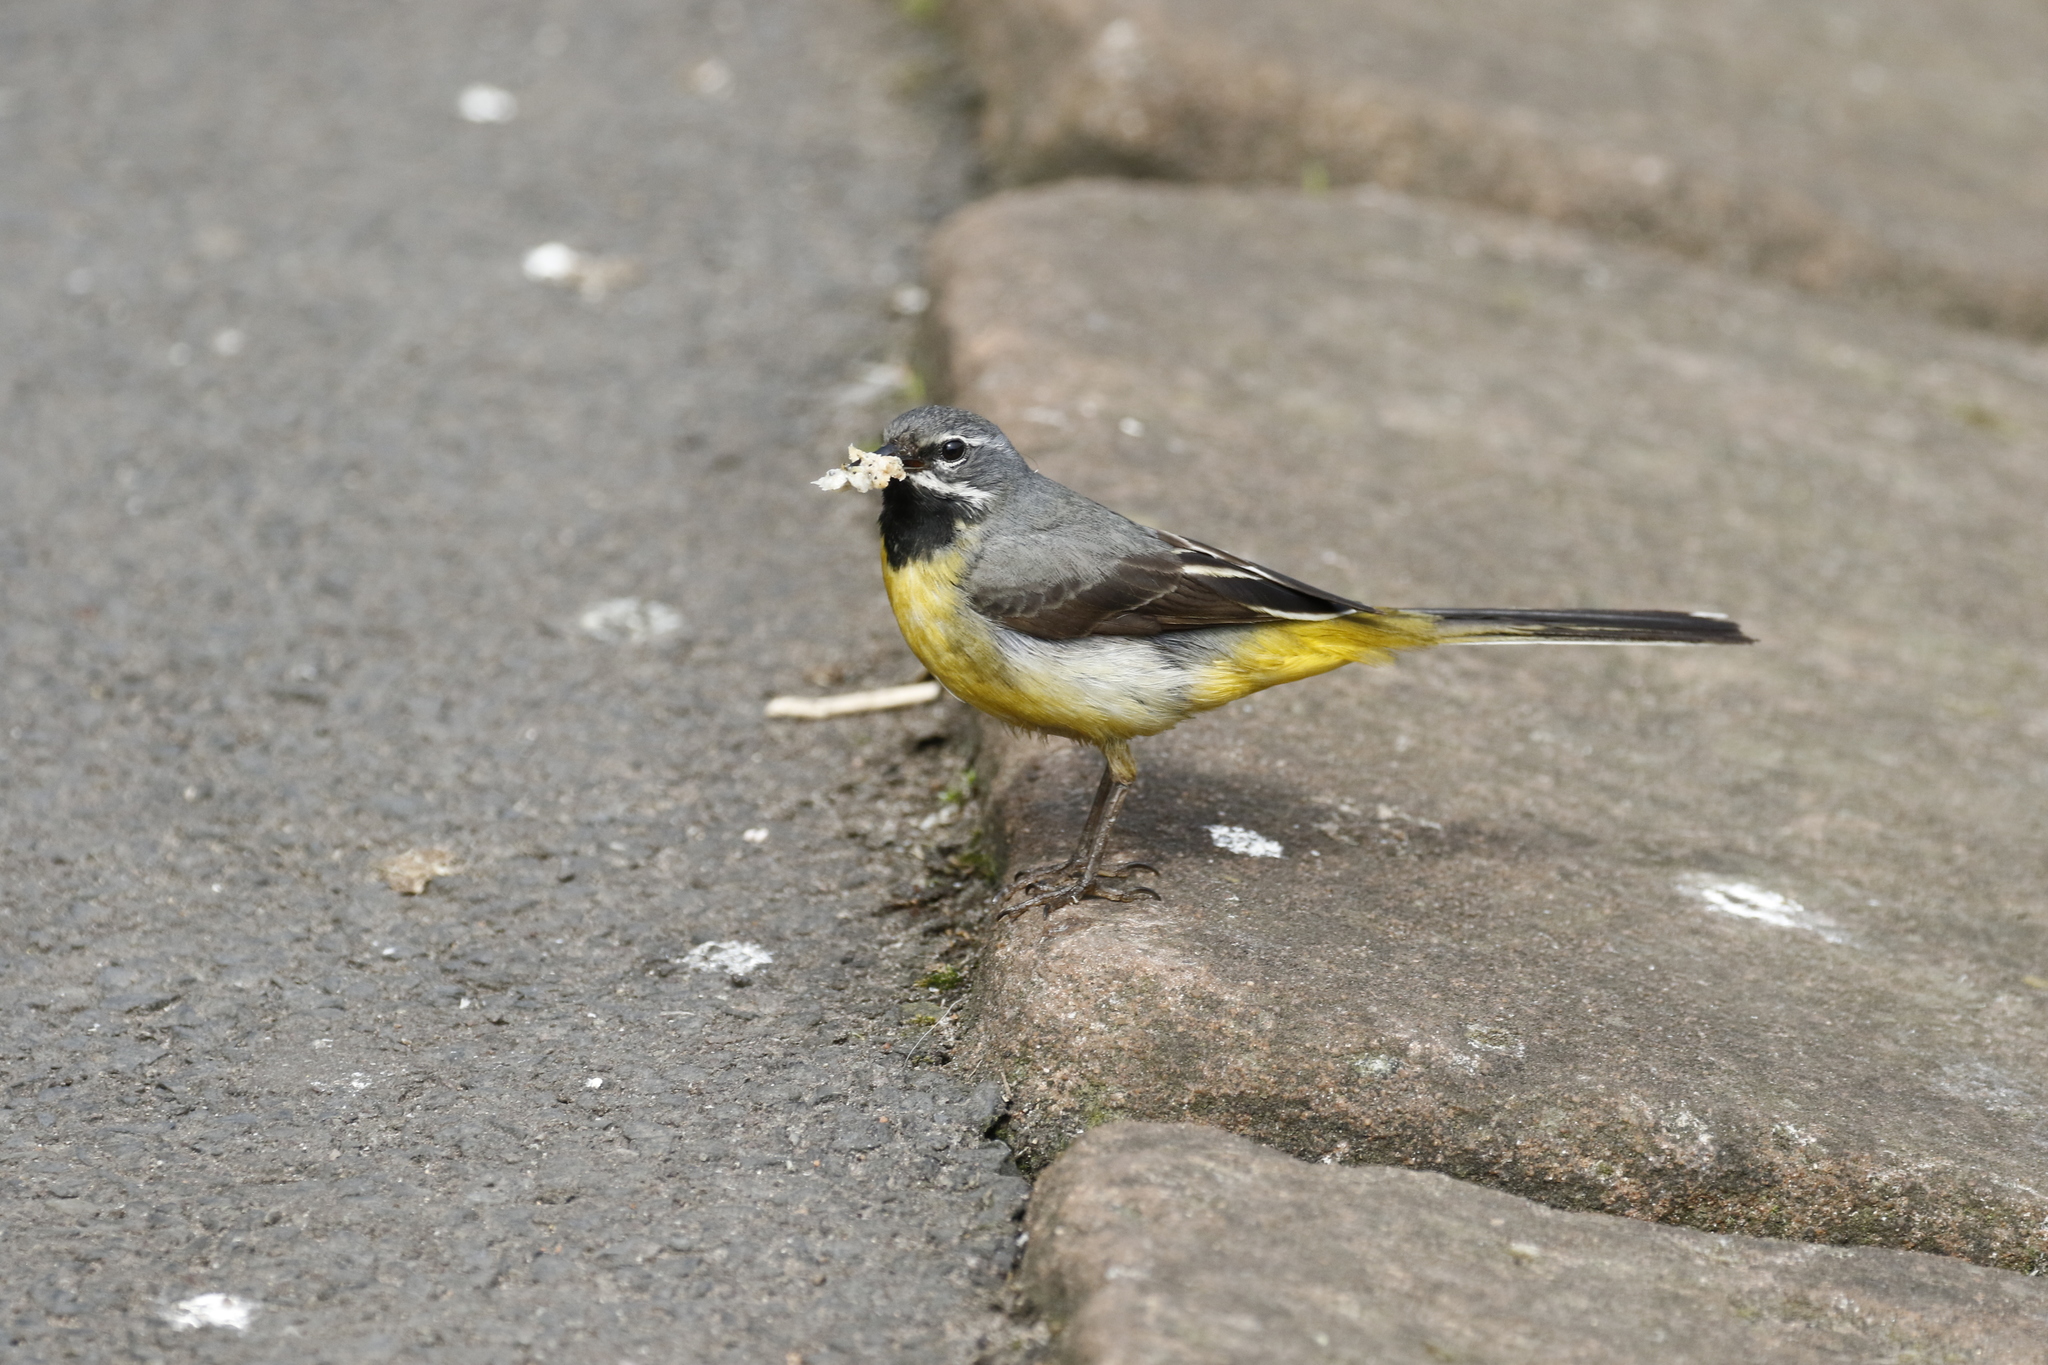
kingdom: Animalia
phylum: Chordata
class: Aves
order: Passeriformes
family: Motacillidae
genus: Motacilla
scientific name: Motacilla cinerea
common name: Grey wagtail
